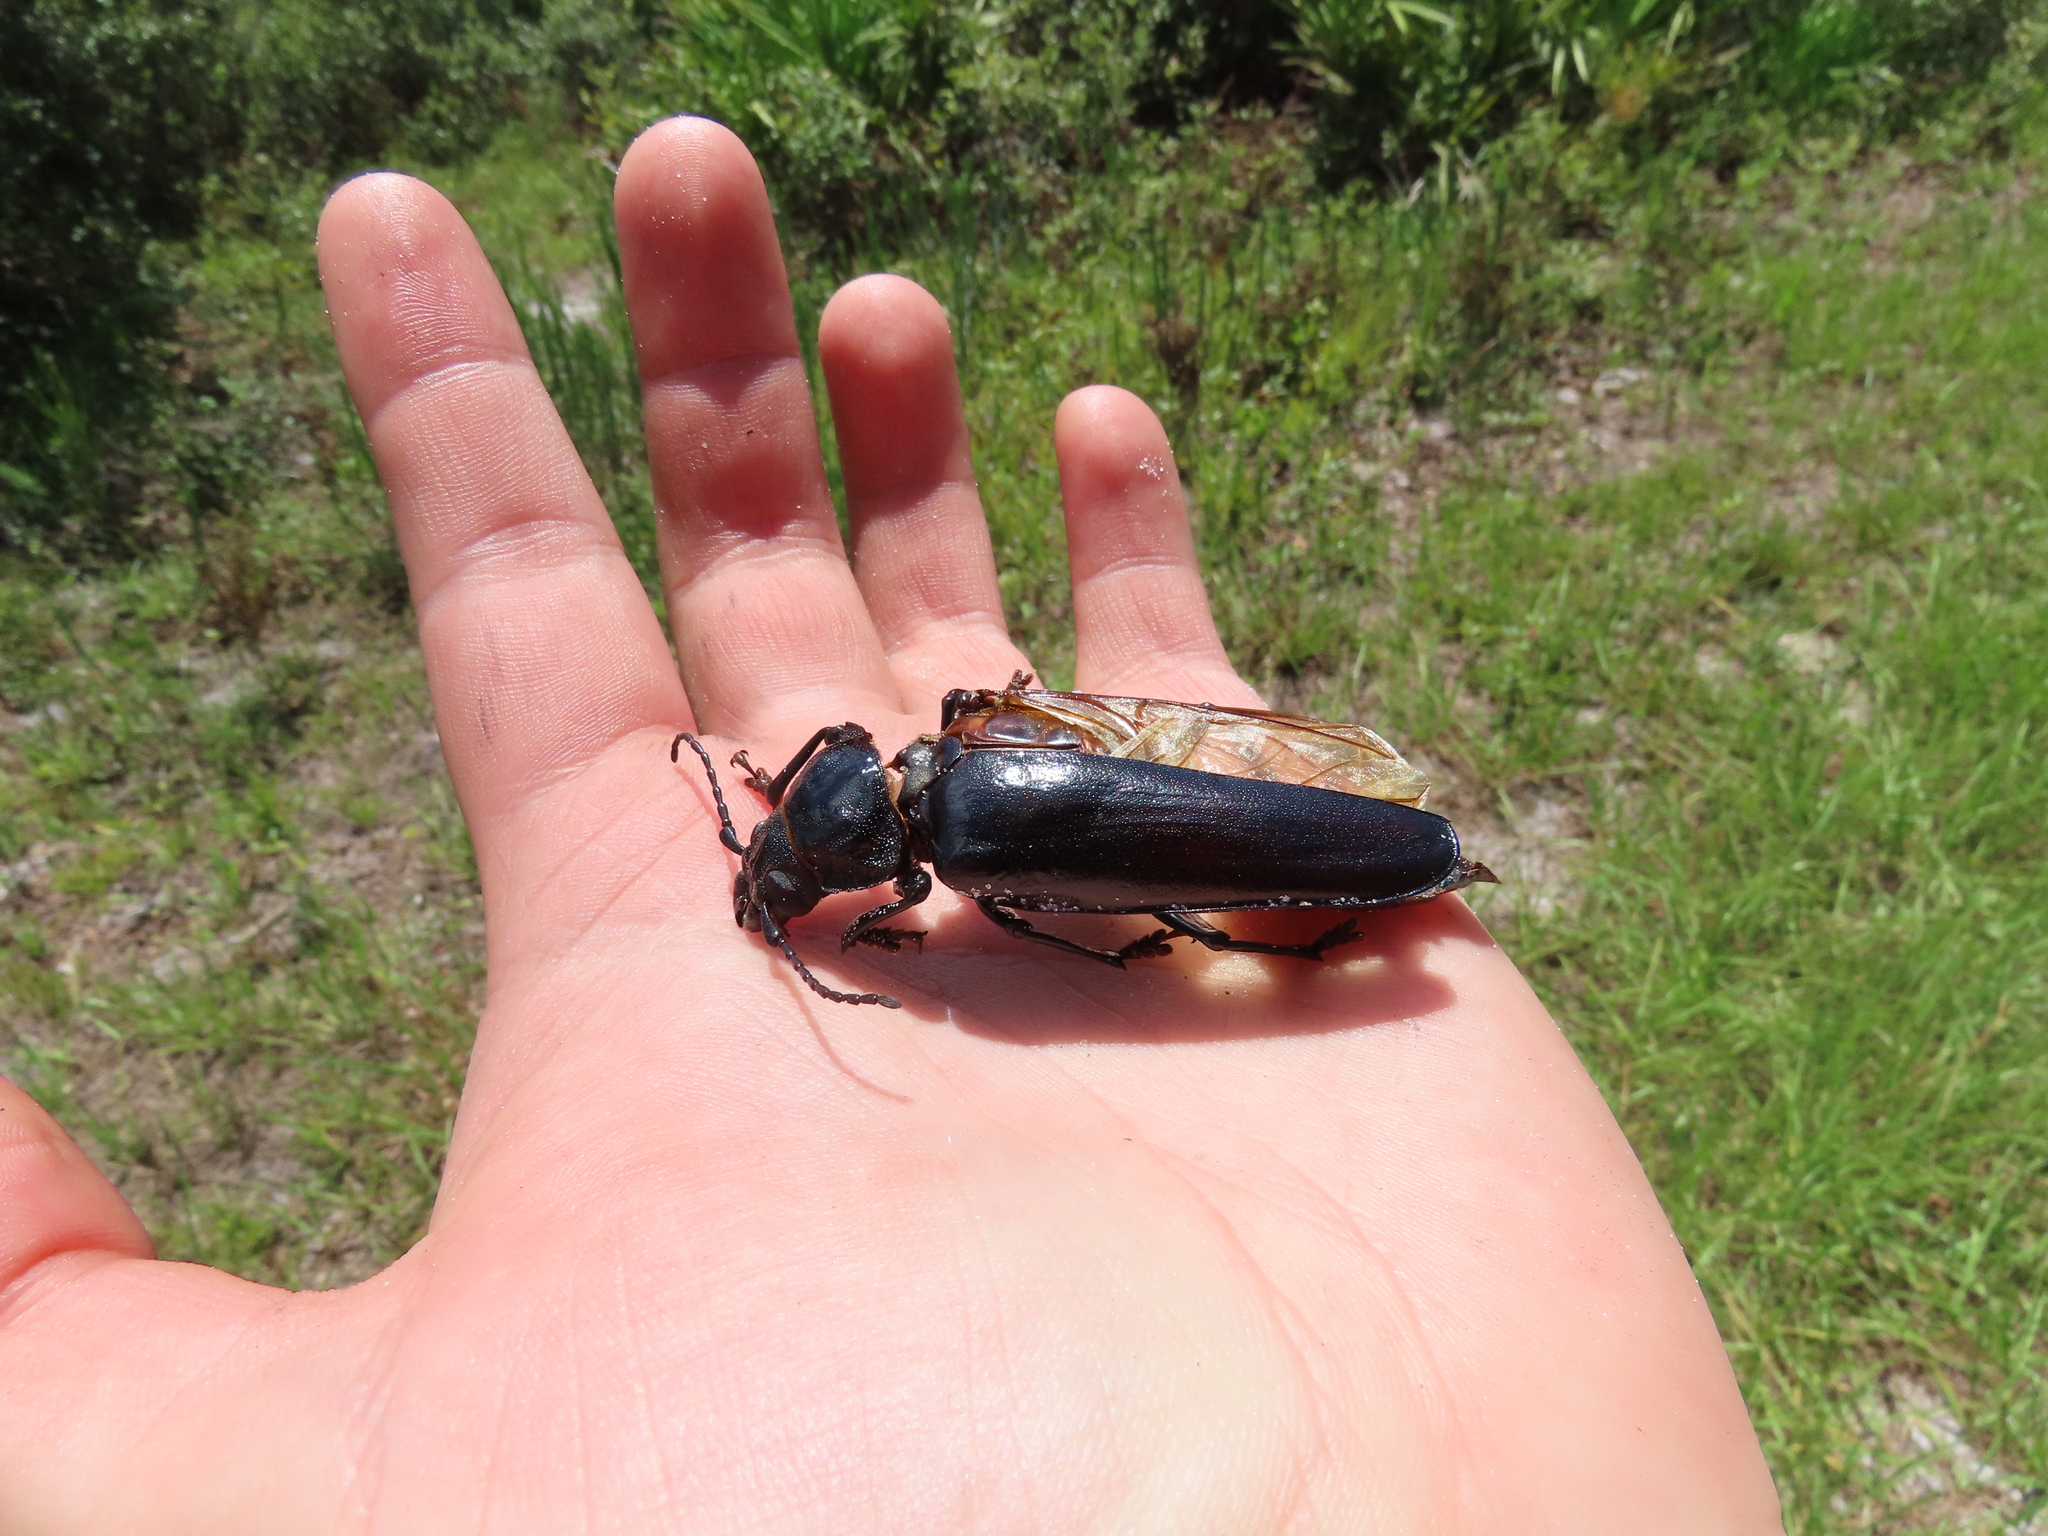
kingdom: Animalia
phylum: Arthropoda
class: Insecta
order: Coleoptera
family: Cerambycidae
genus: Archodontes
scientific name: Archodontes melanopus
